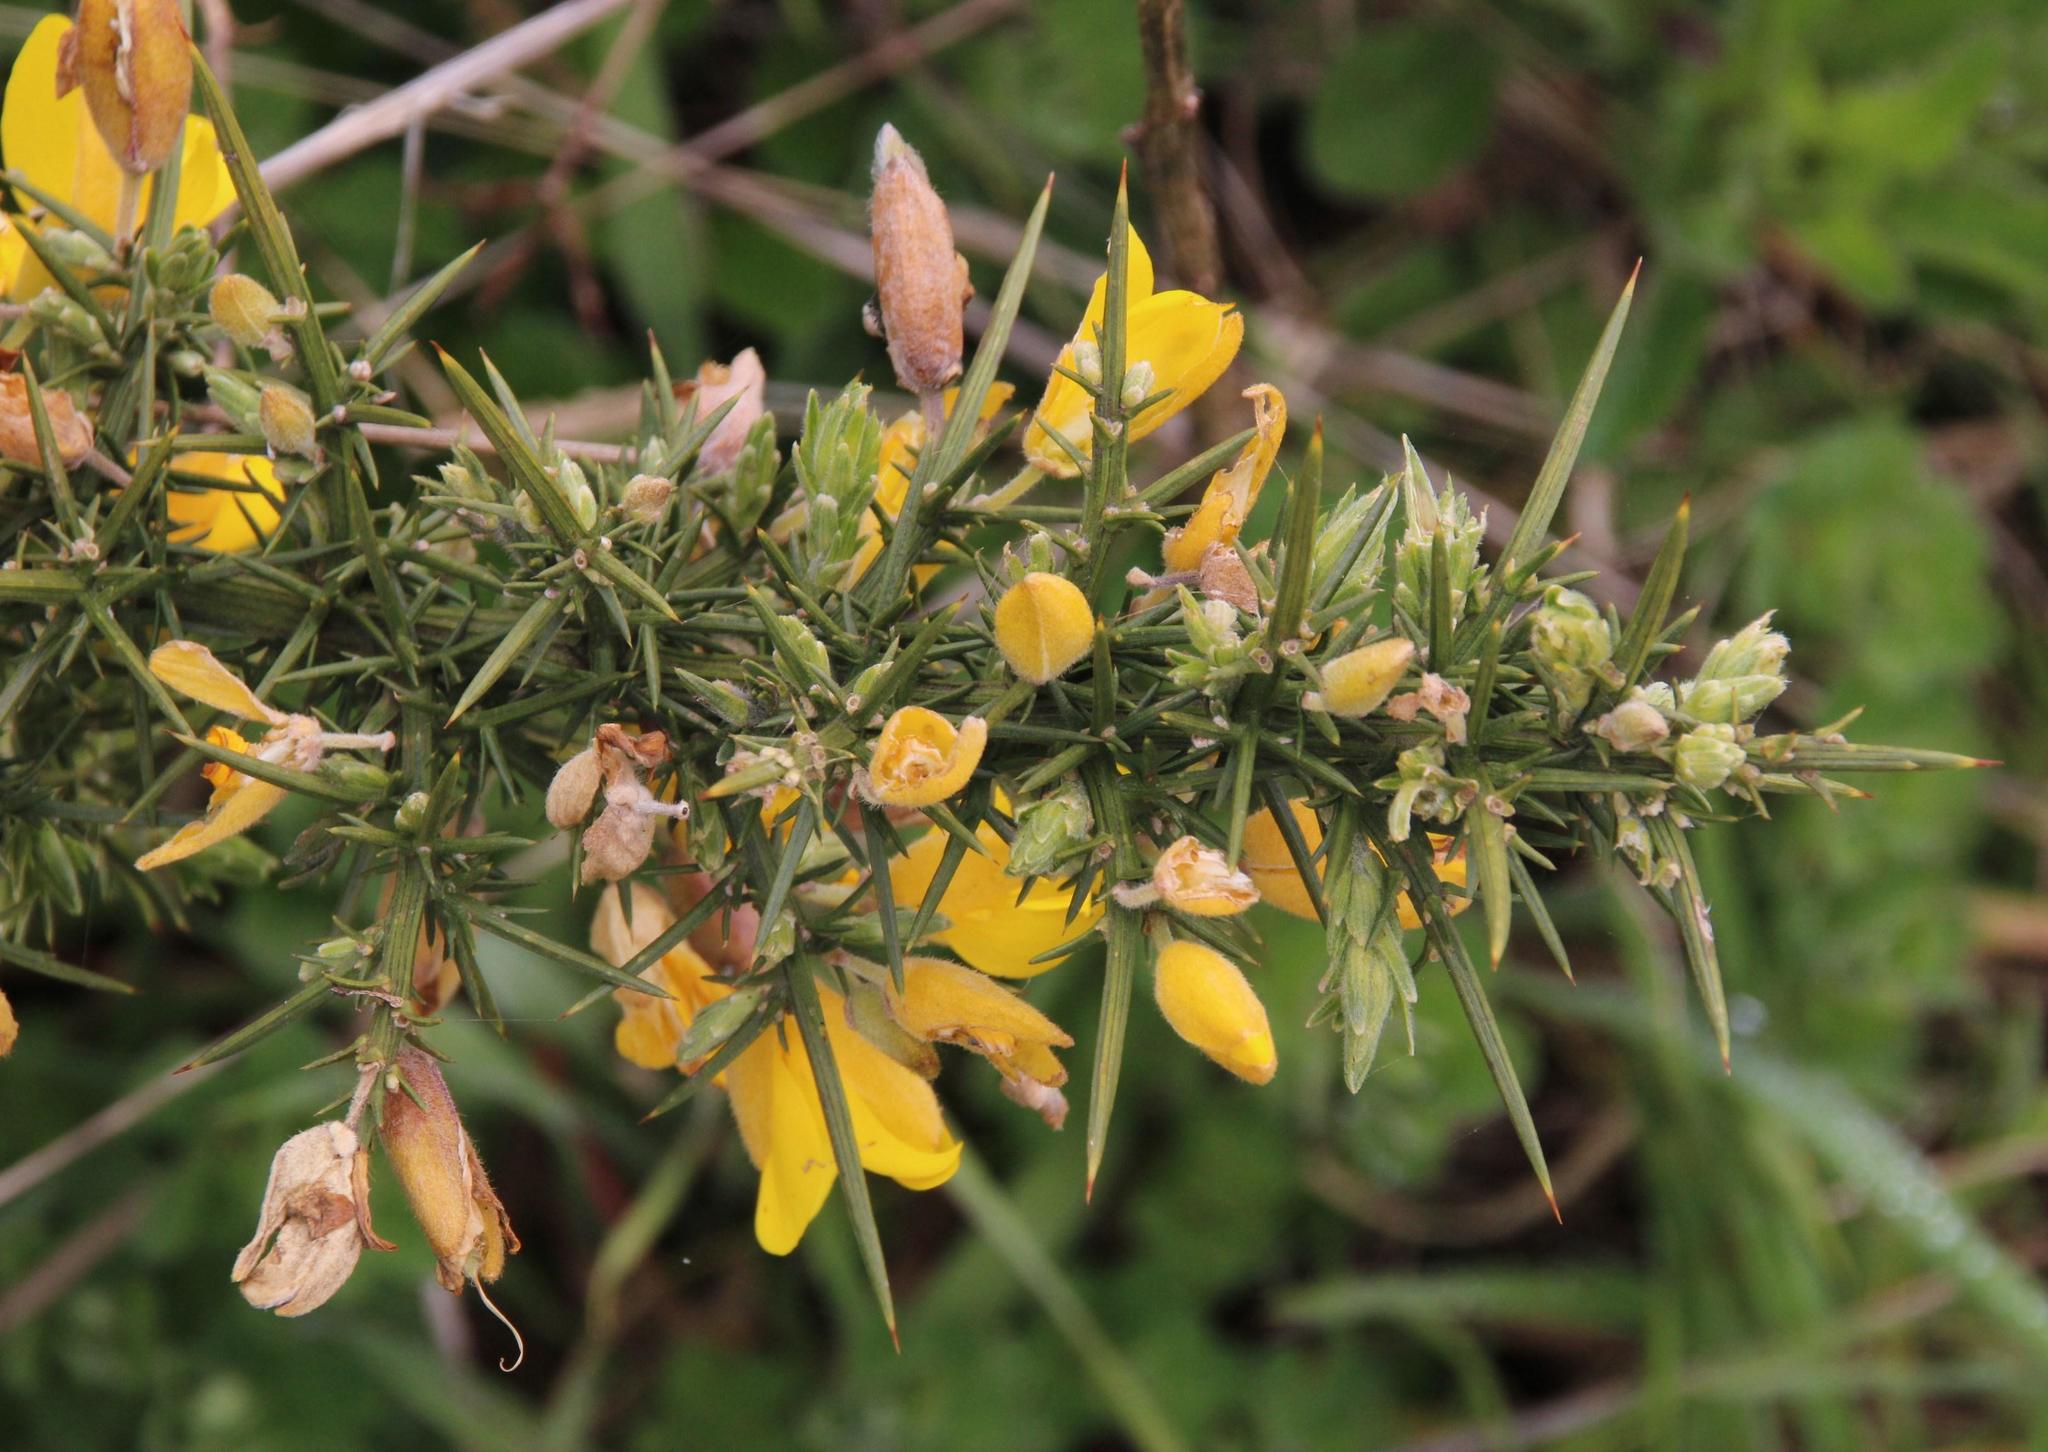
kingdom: Plantae
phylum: Tracheophyta
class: Magnoliopsida
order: Fabales
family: Fabaceae
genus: Ulex
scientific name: Ulex europaeus
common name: Common gorse
